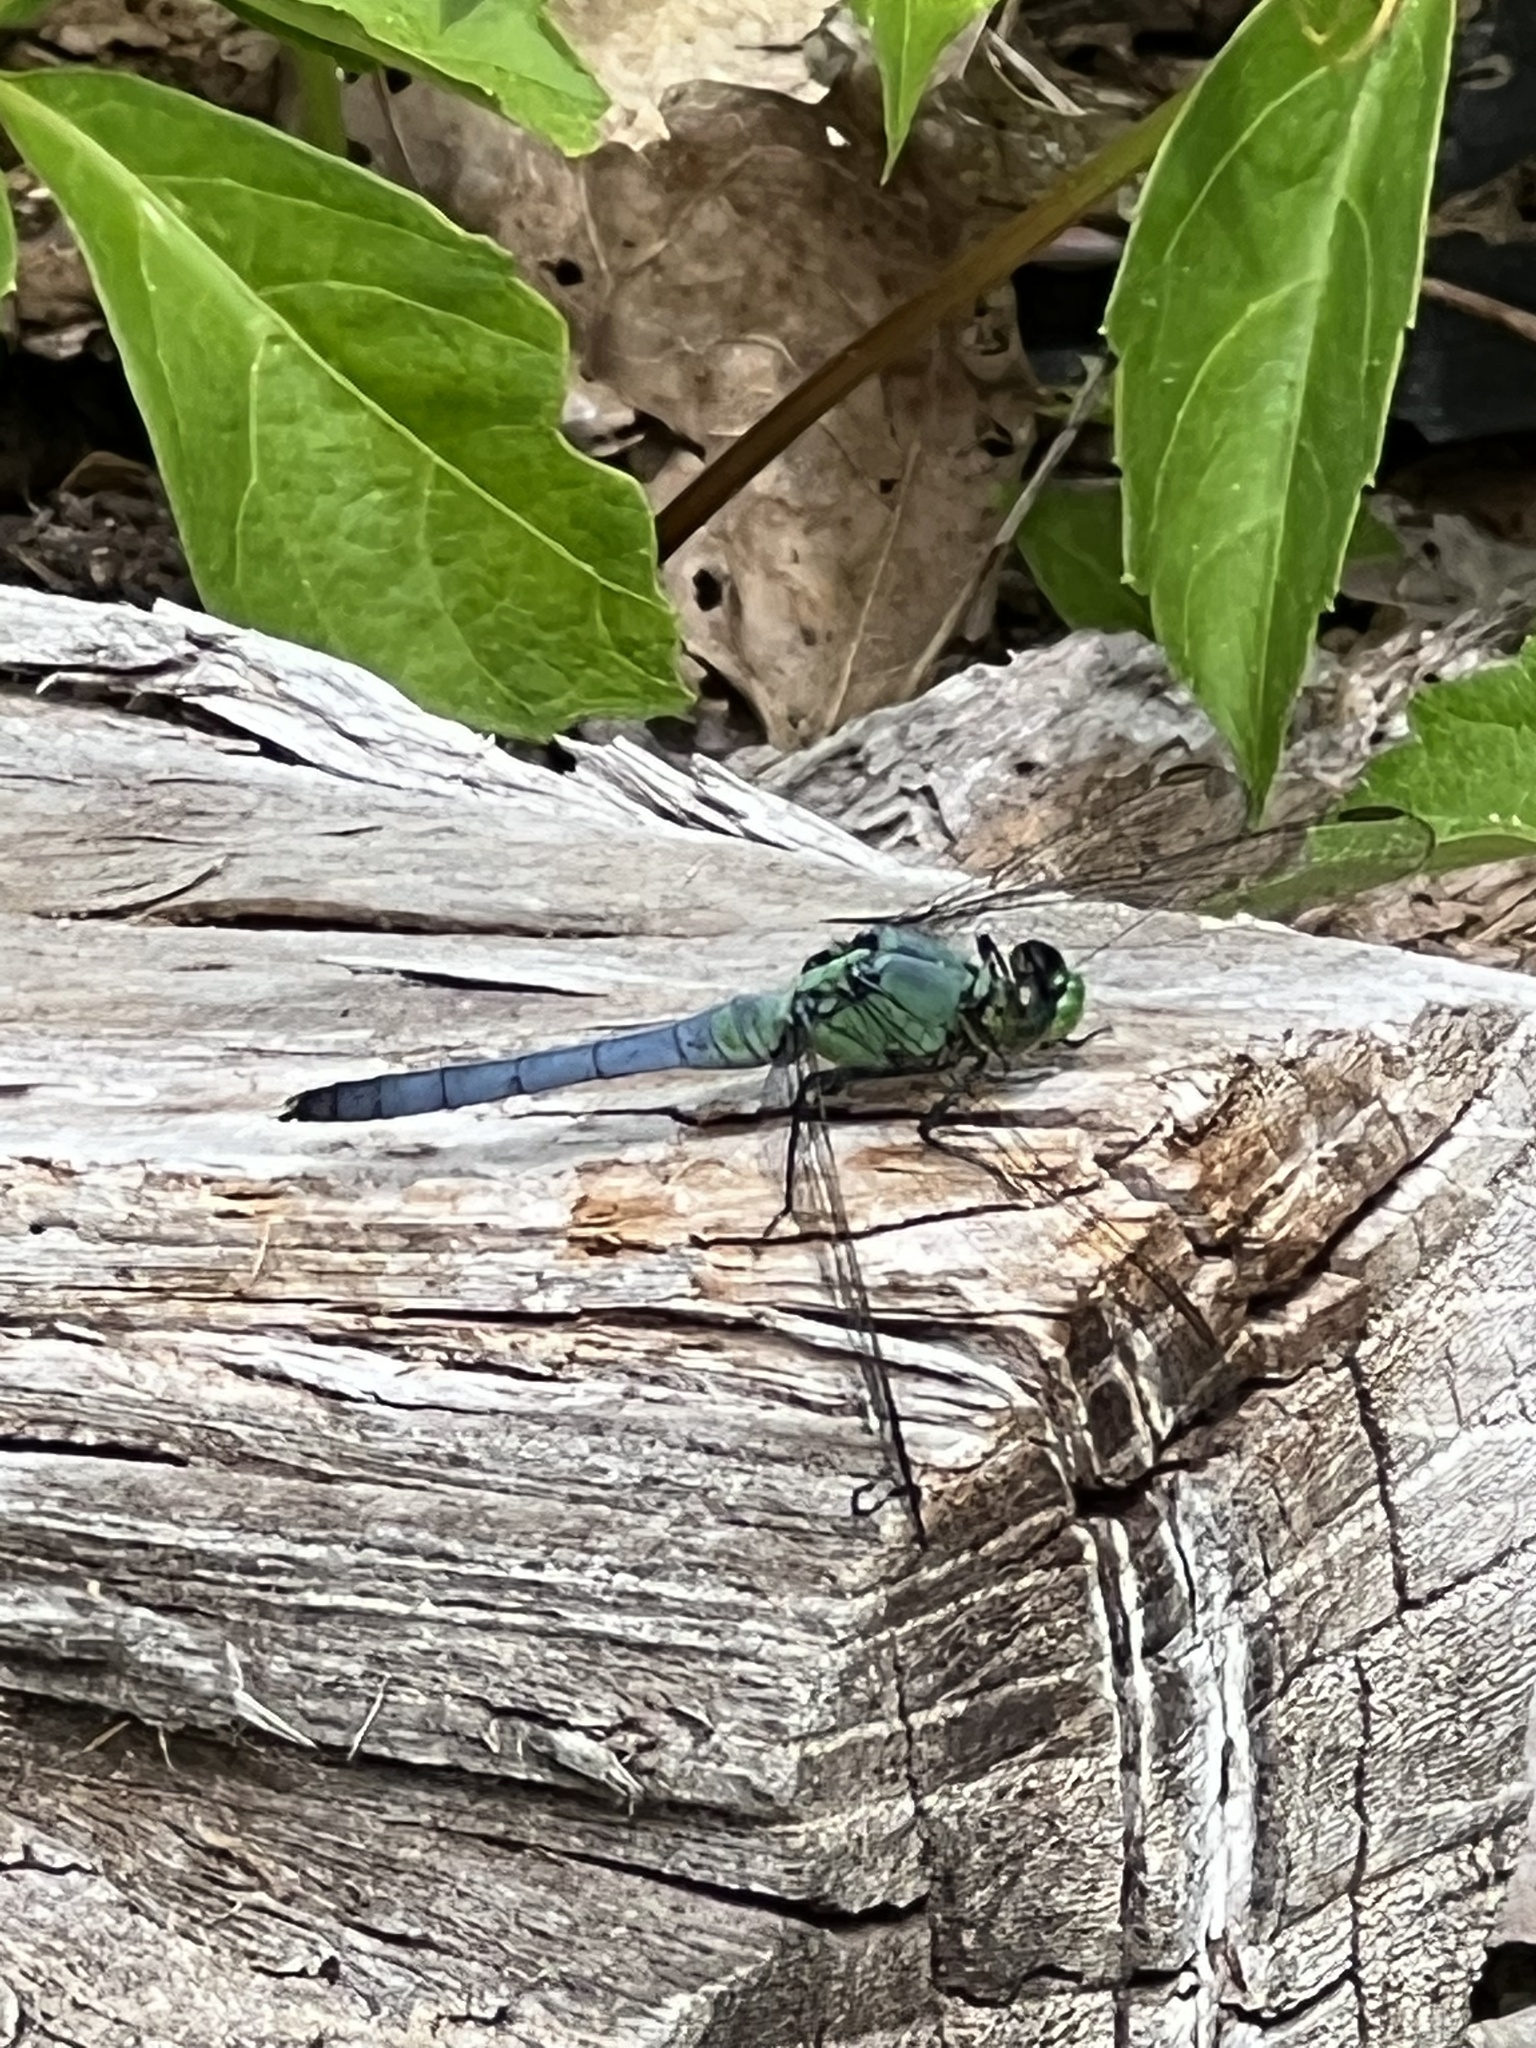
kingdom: Animalia
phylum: Arthropoda
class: Insecta
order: Odonata
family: Libellulidae
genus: Erythemis
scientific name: Erythemis simplicicollis
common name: Eastern pondhawk
